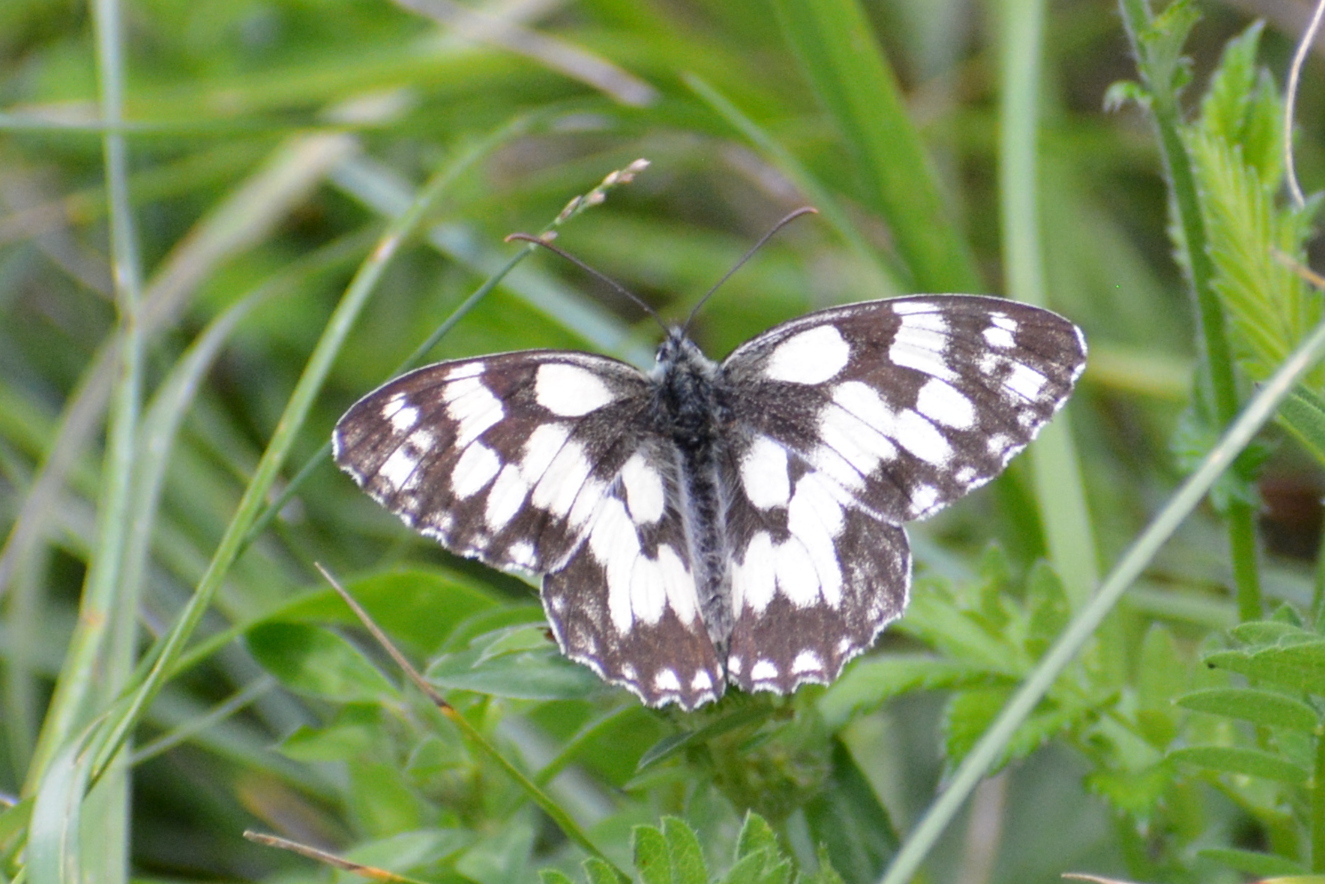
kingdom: Animalia
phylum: Arthropoda
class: Insecta
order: Lepidoptera
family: Nymphalidae
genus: Melanargia
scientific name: Melanargia galathea
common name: Marbled white
